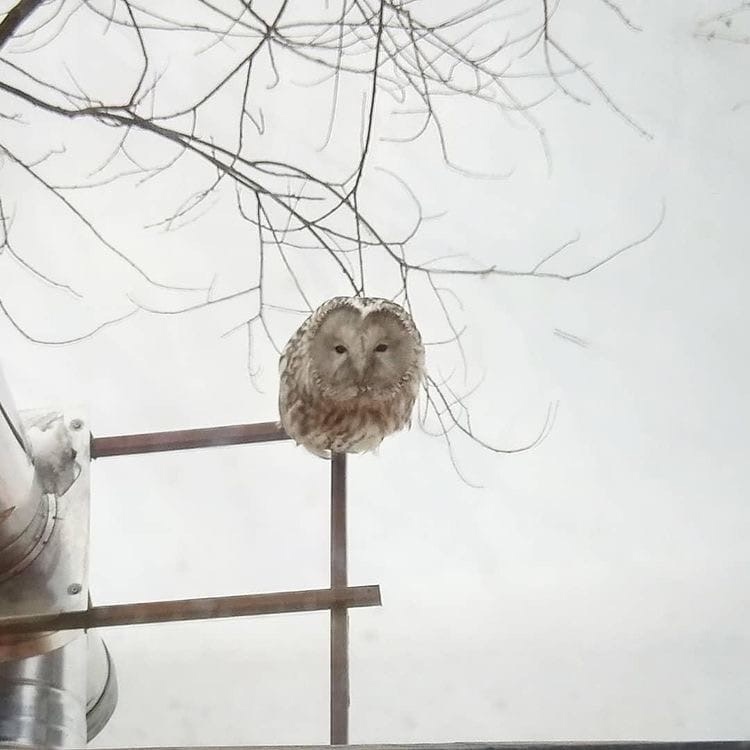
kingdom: Animalia
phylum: Chordata
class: Aves
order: Strigiformes
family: Strigidae
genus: Strix
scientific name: Strix uralensis
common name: Ural owl
